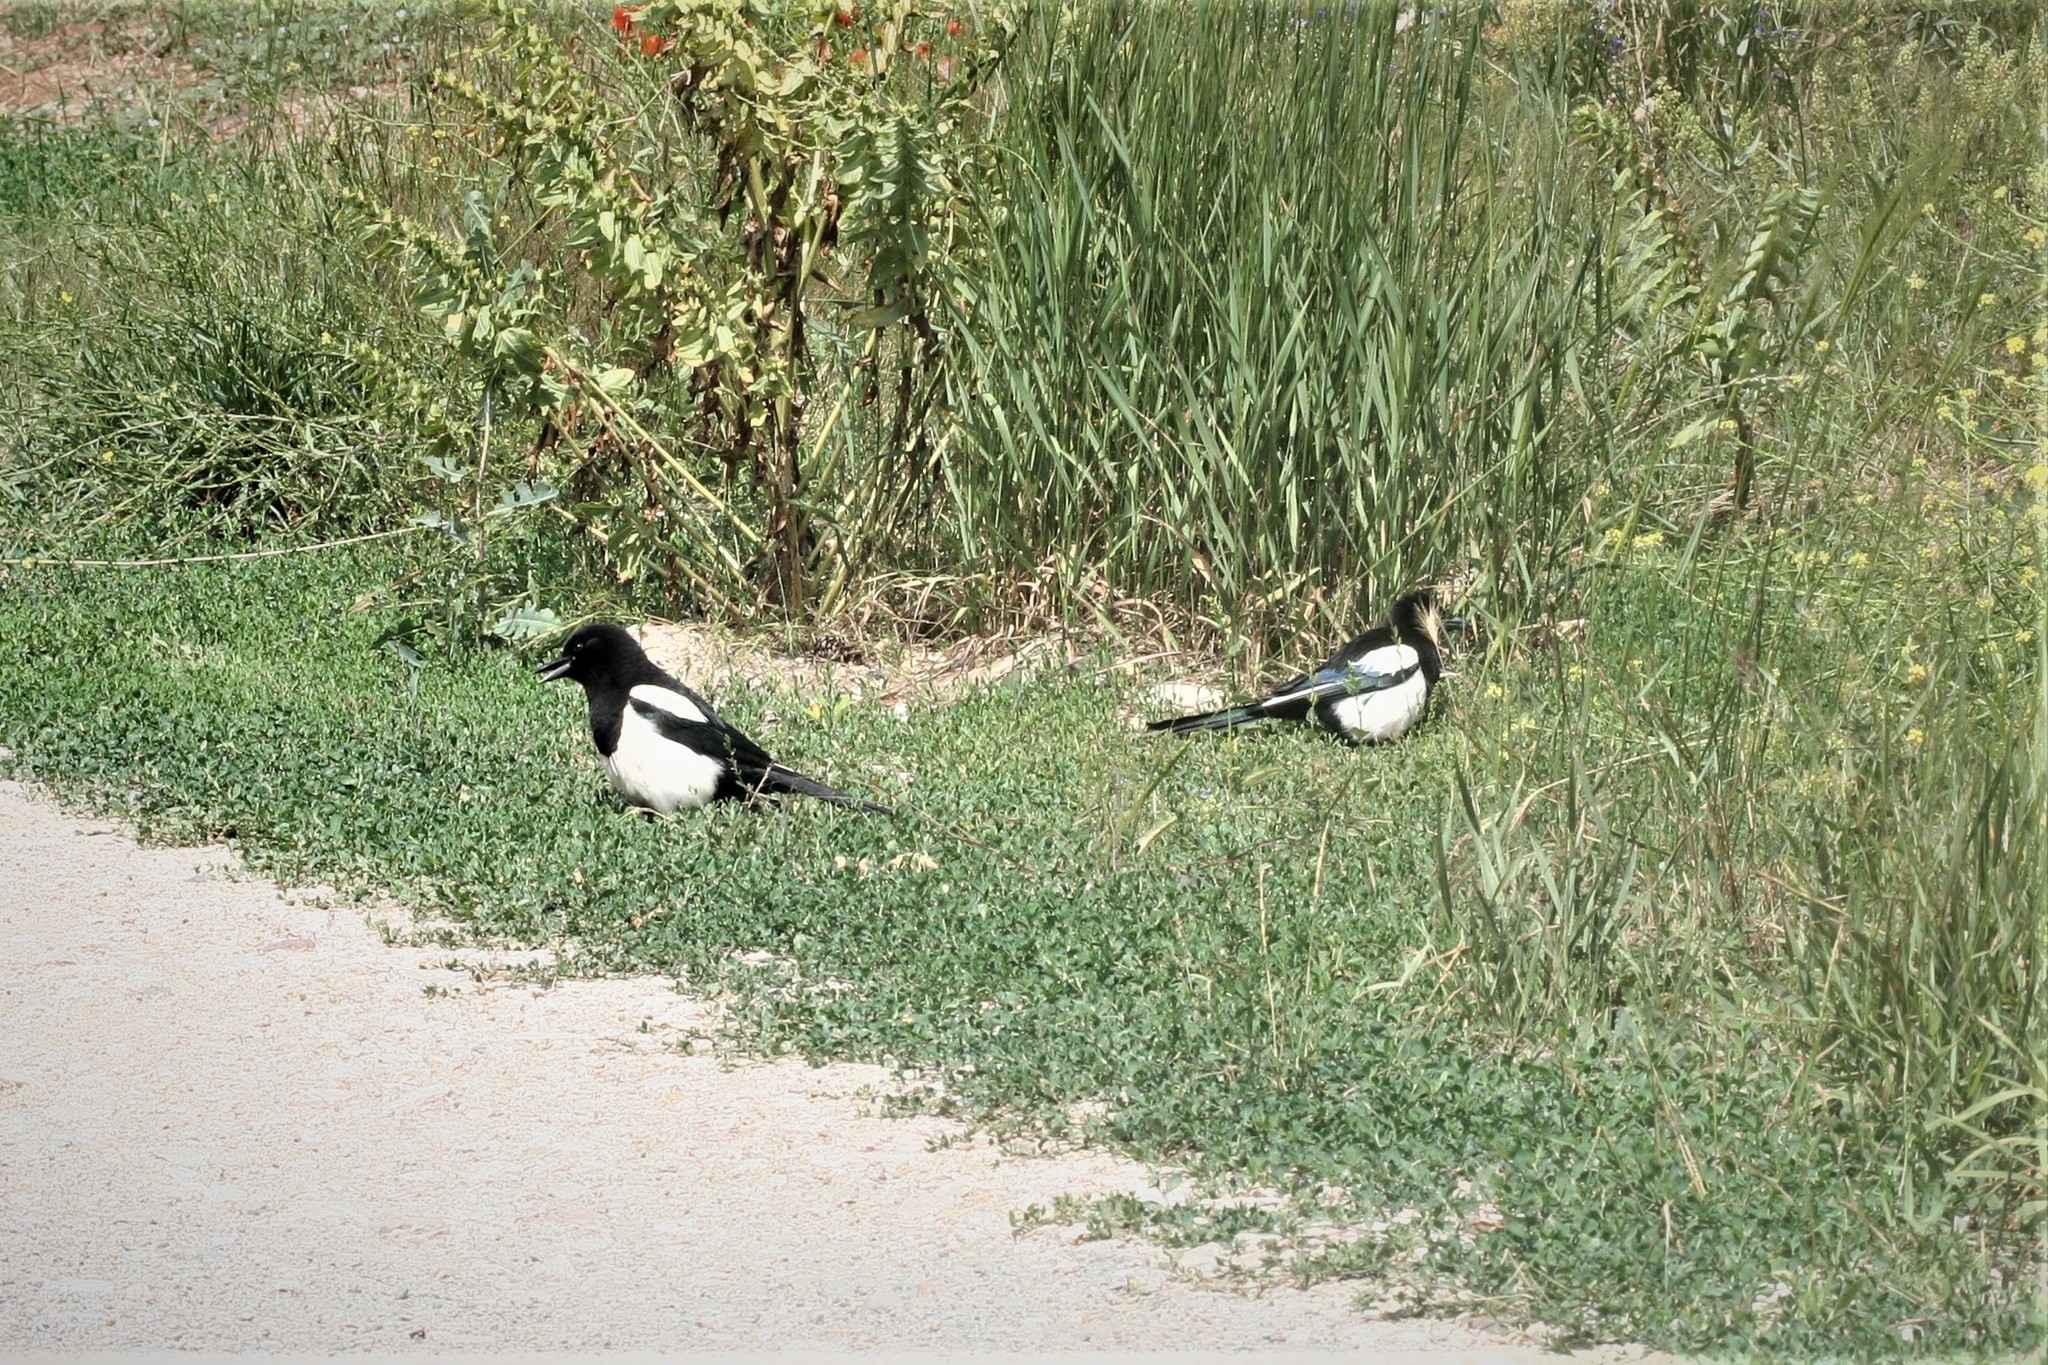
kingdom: Animalia
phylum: Chordata
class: Aves
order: Passeriformes
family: Corvidae
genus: Pica
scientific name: Pica pica
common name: Eurasian magpie
